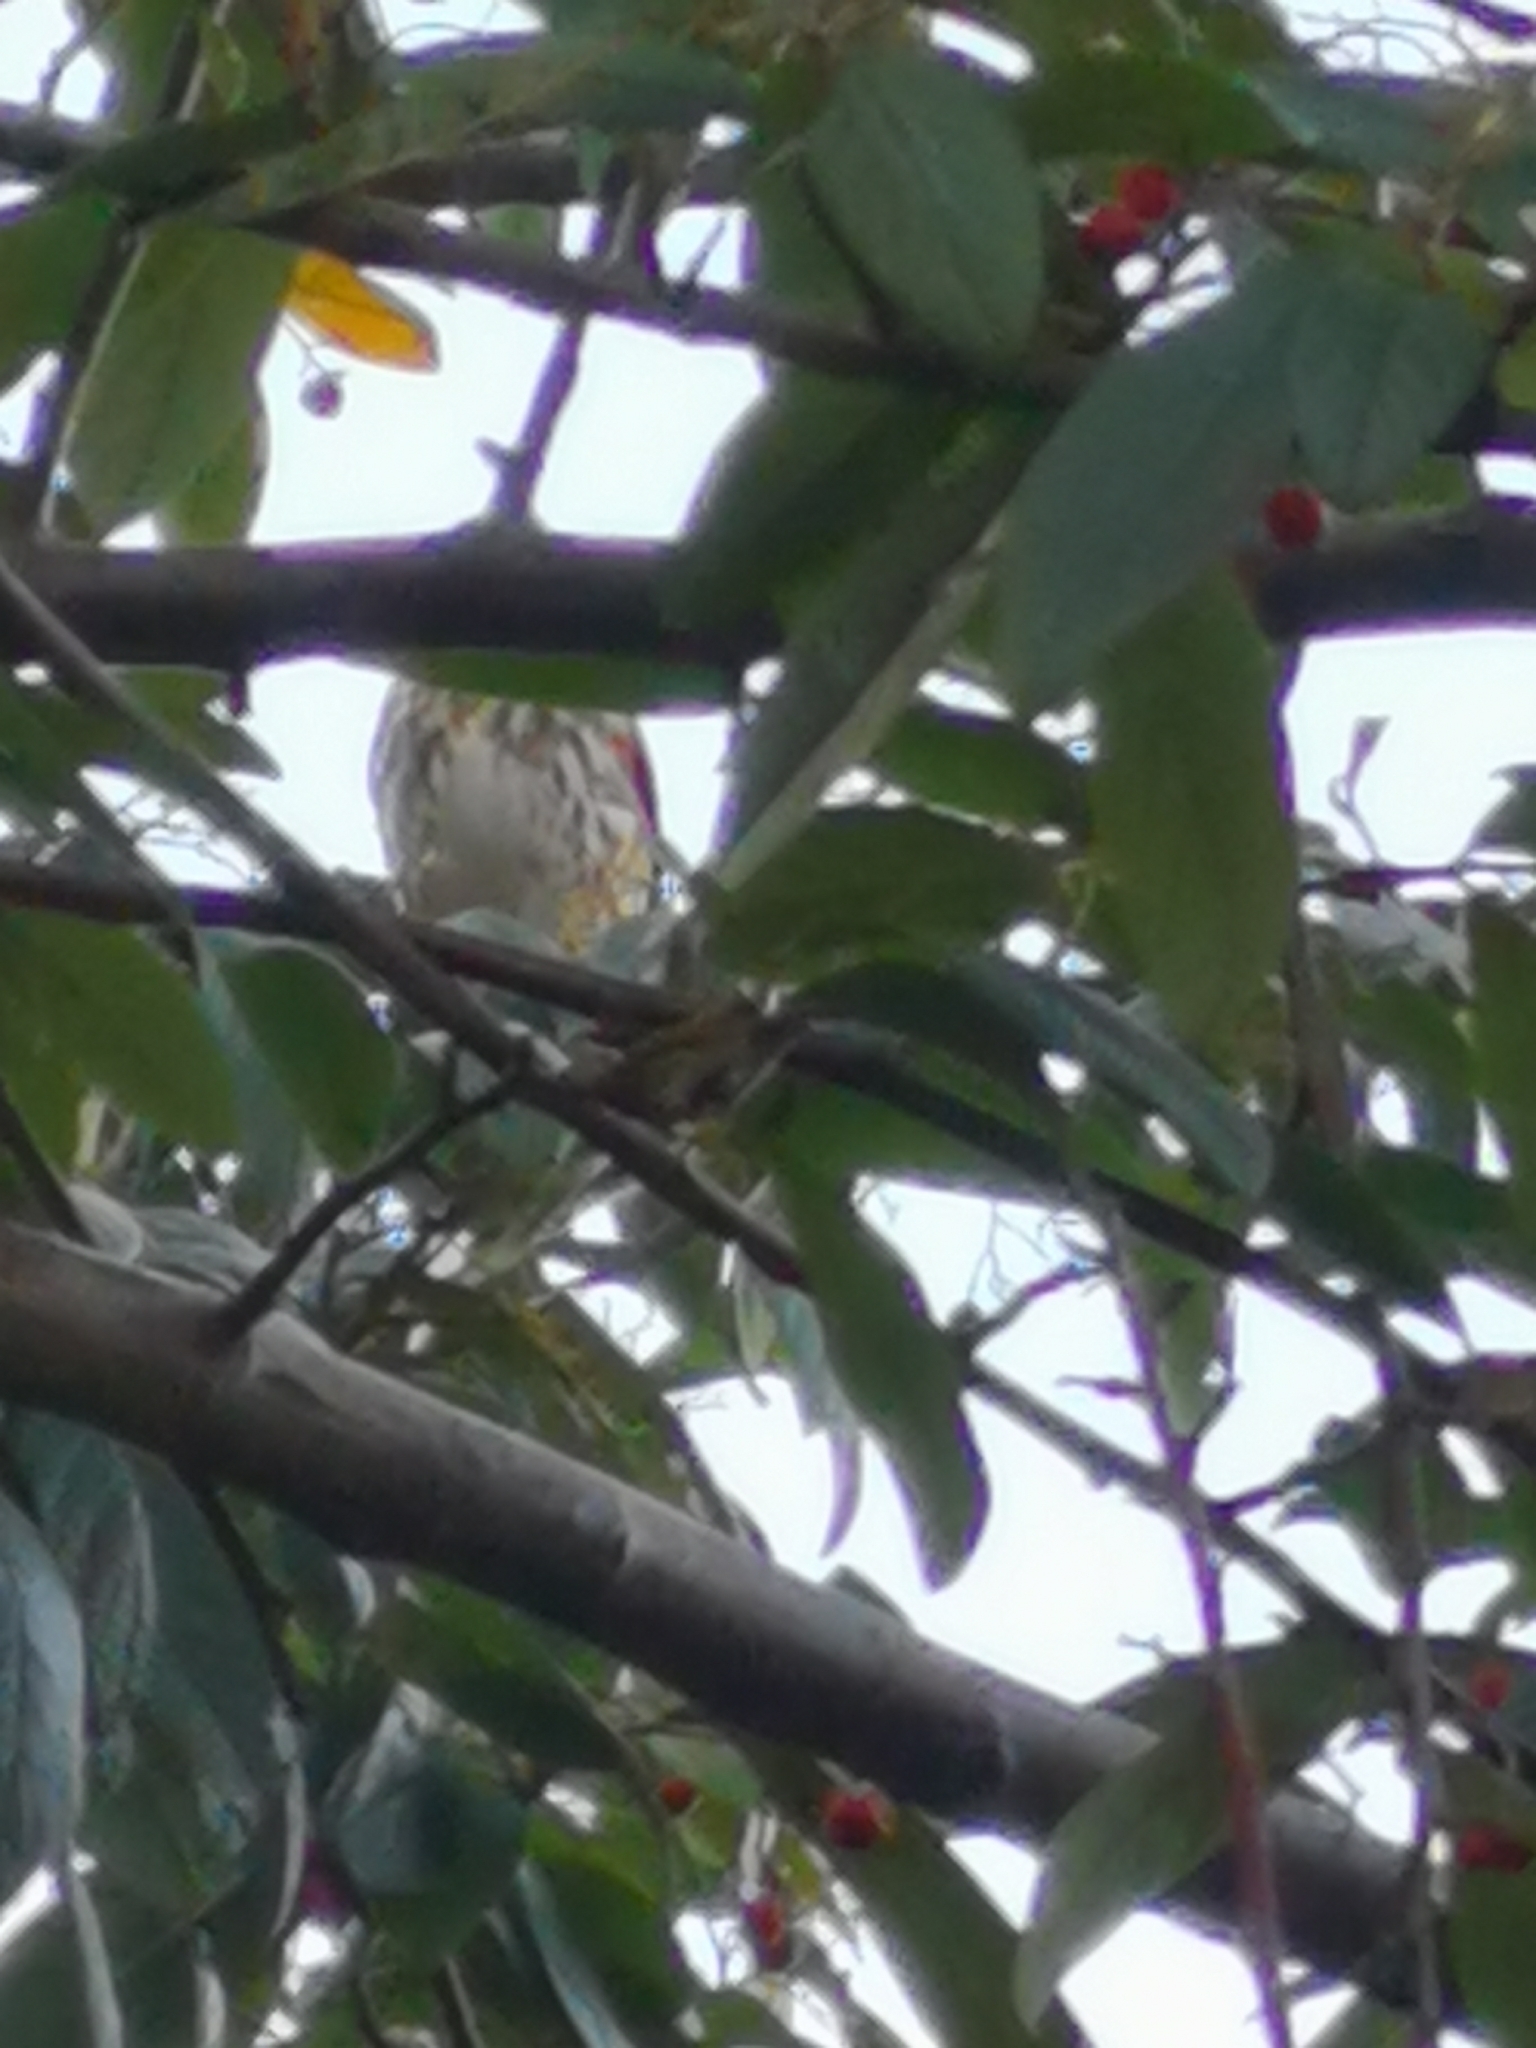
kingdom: Animalia
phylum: Chordata
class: Aves
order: Passeriformes
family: Turdidae
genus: Turdus
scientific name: Turdus iliacus
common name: Redwing
